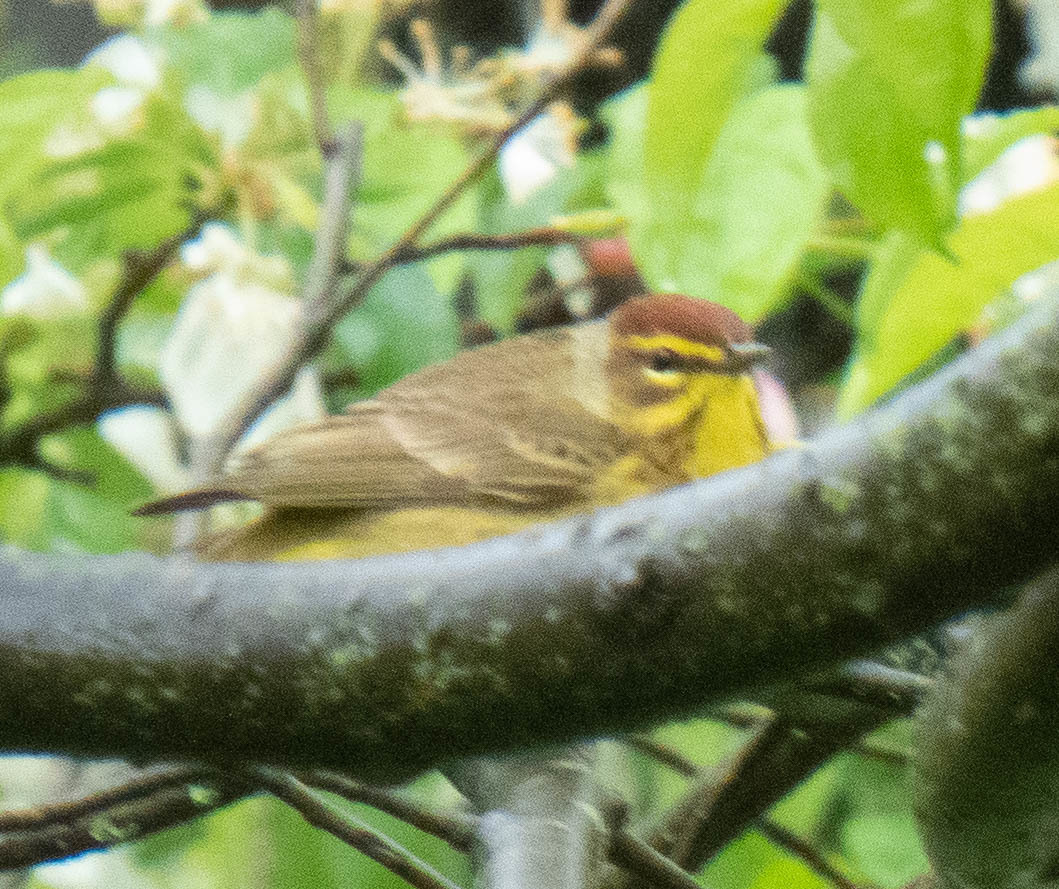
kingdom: Animalia
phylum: Chordata
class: Aves
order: Passeriformes
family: Parulidae
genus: Setophaga
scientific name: Setophaga palmarum
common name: Palm warbler
